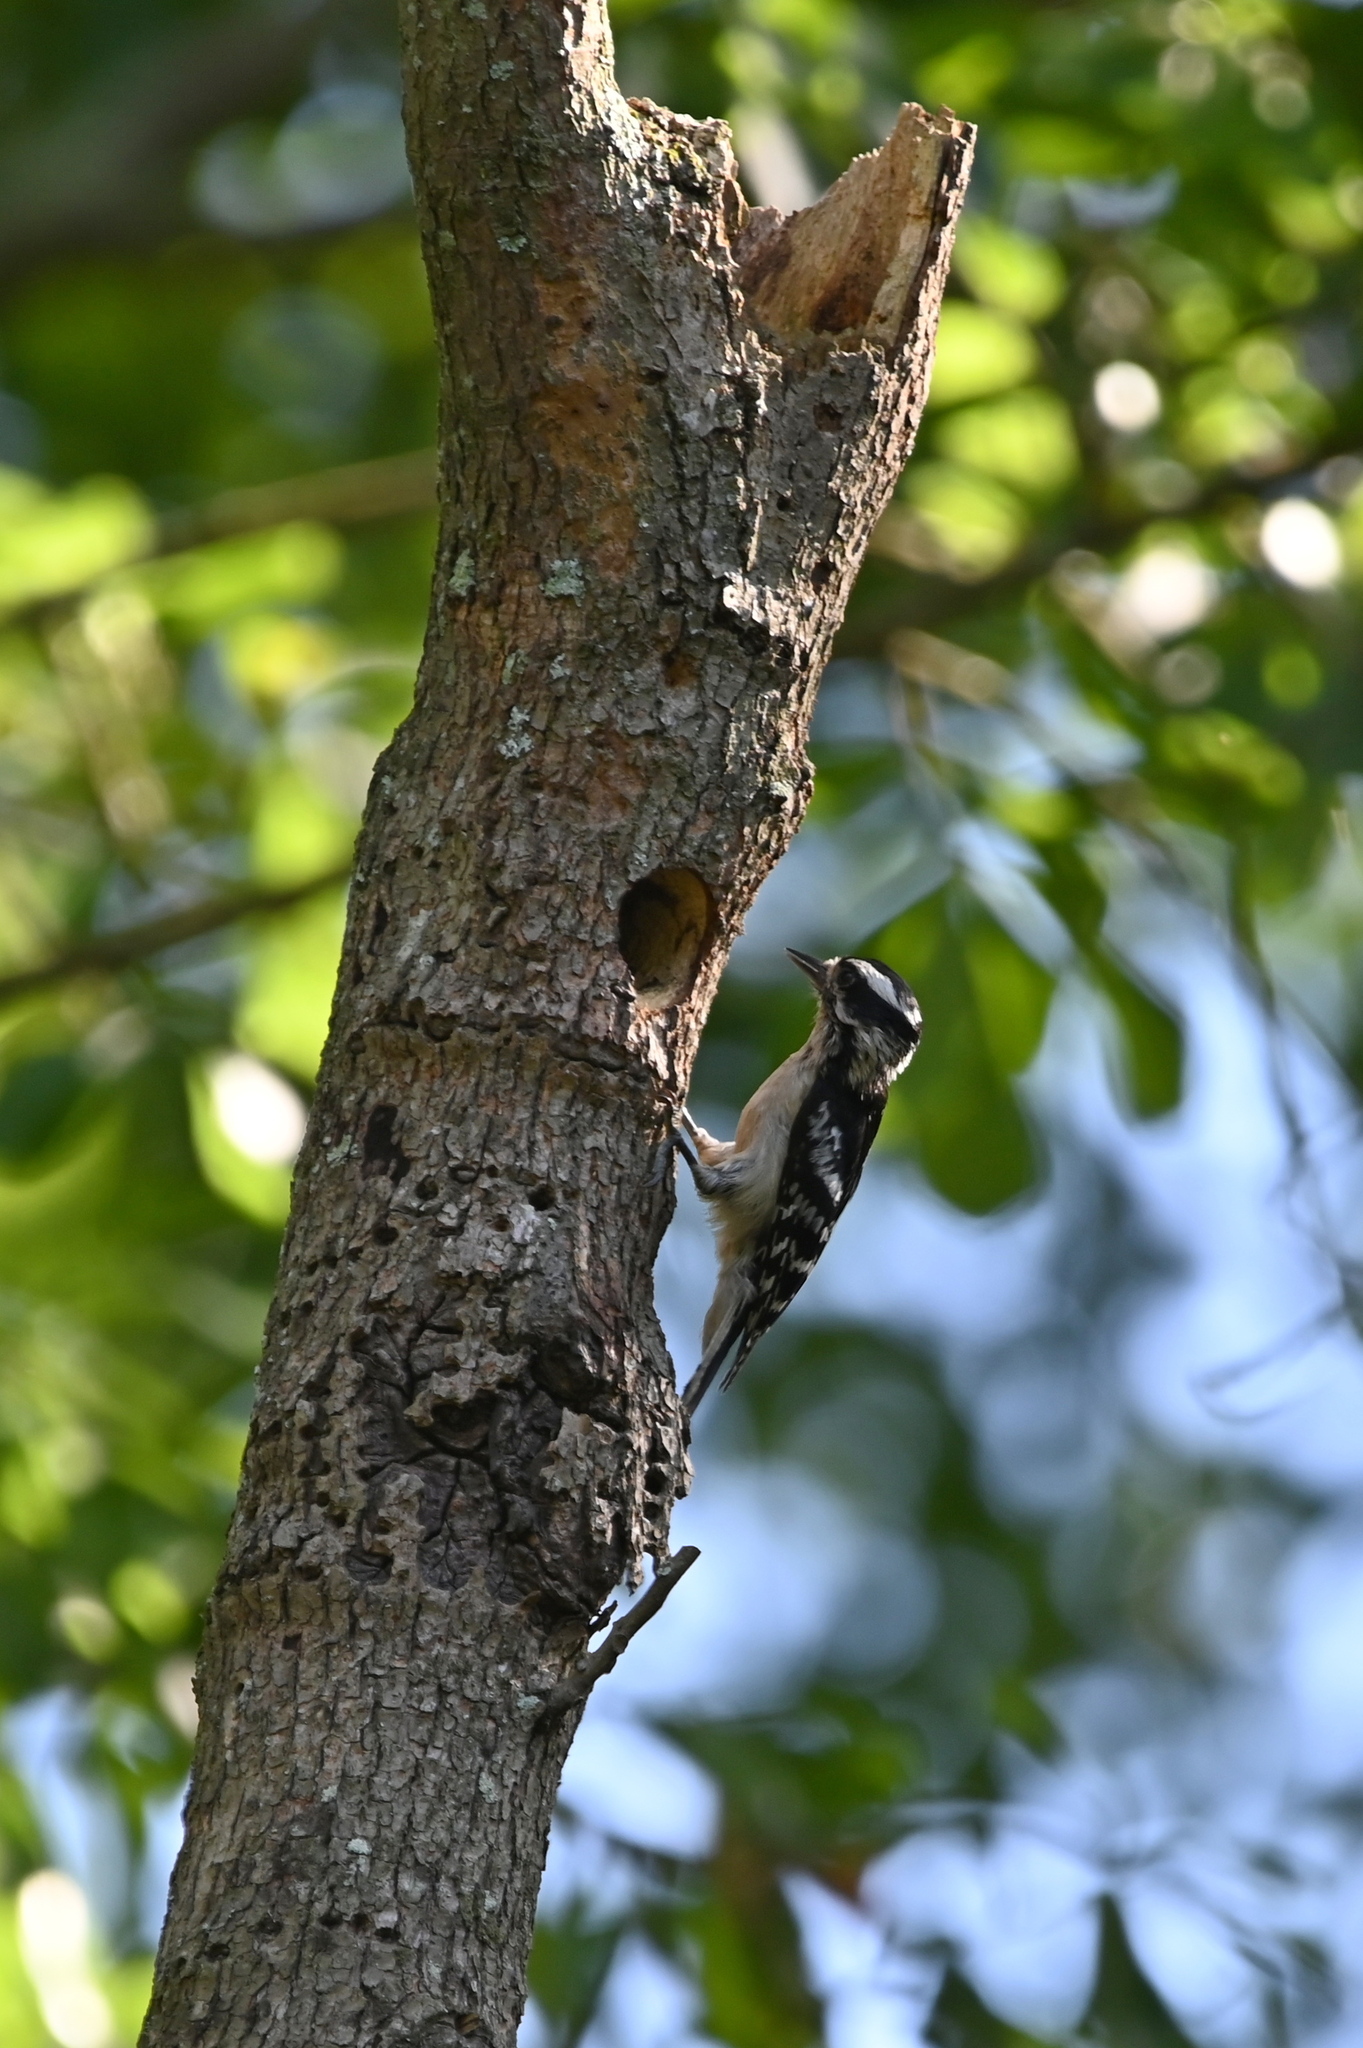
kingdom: Animalia
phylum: Chordata
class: Aves
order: Piciformes
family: Picidae
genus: Dryobates
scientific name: Dryobates pubescens
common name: Downy woodpecker
